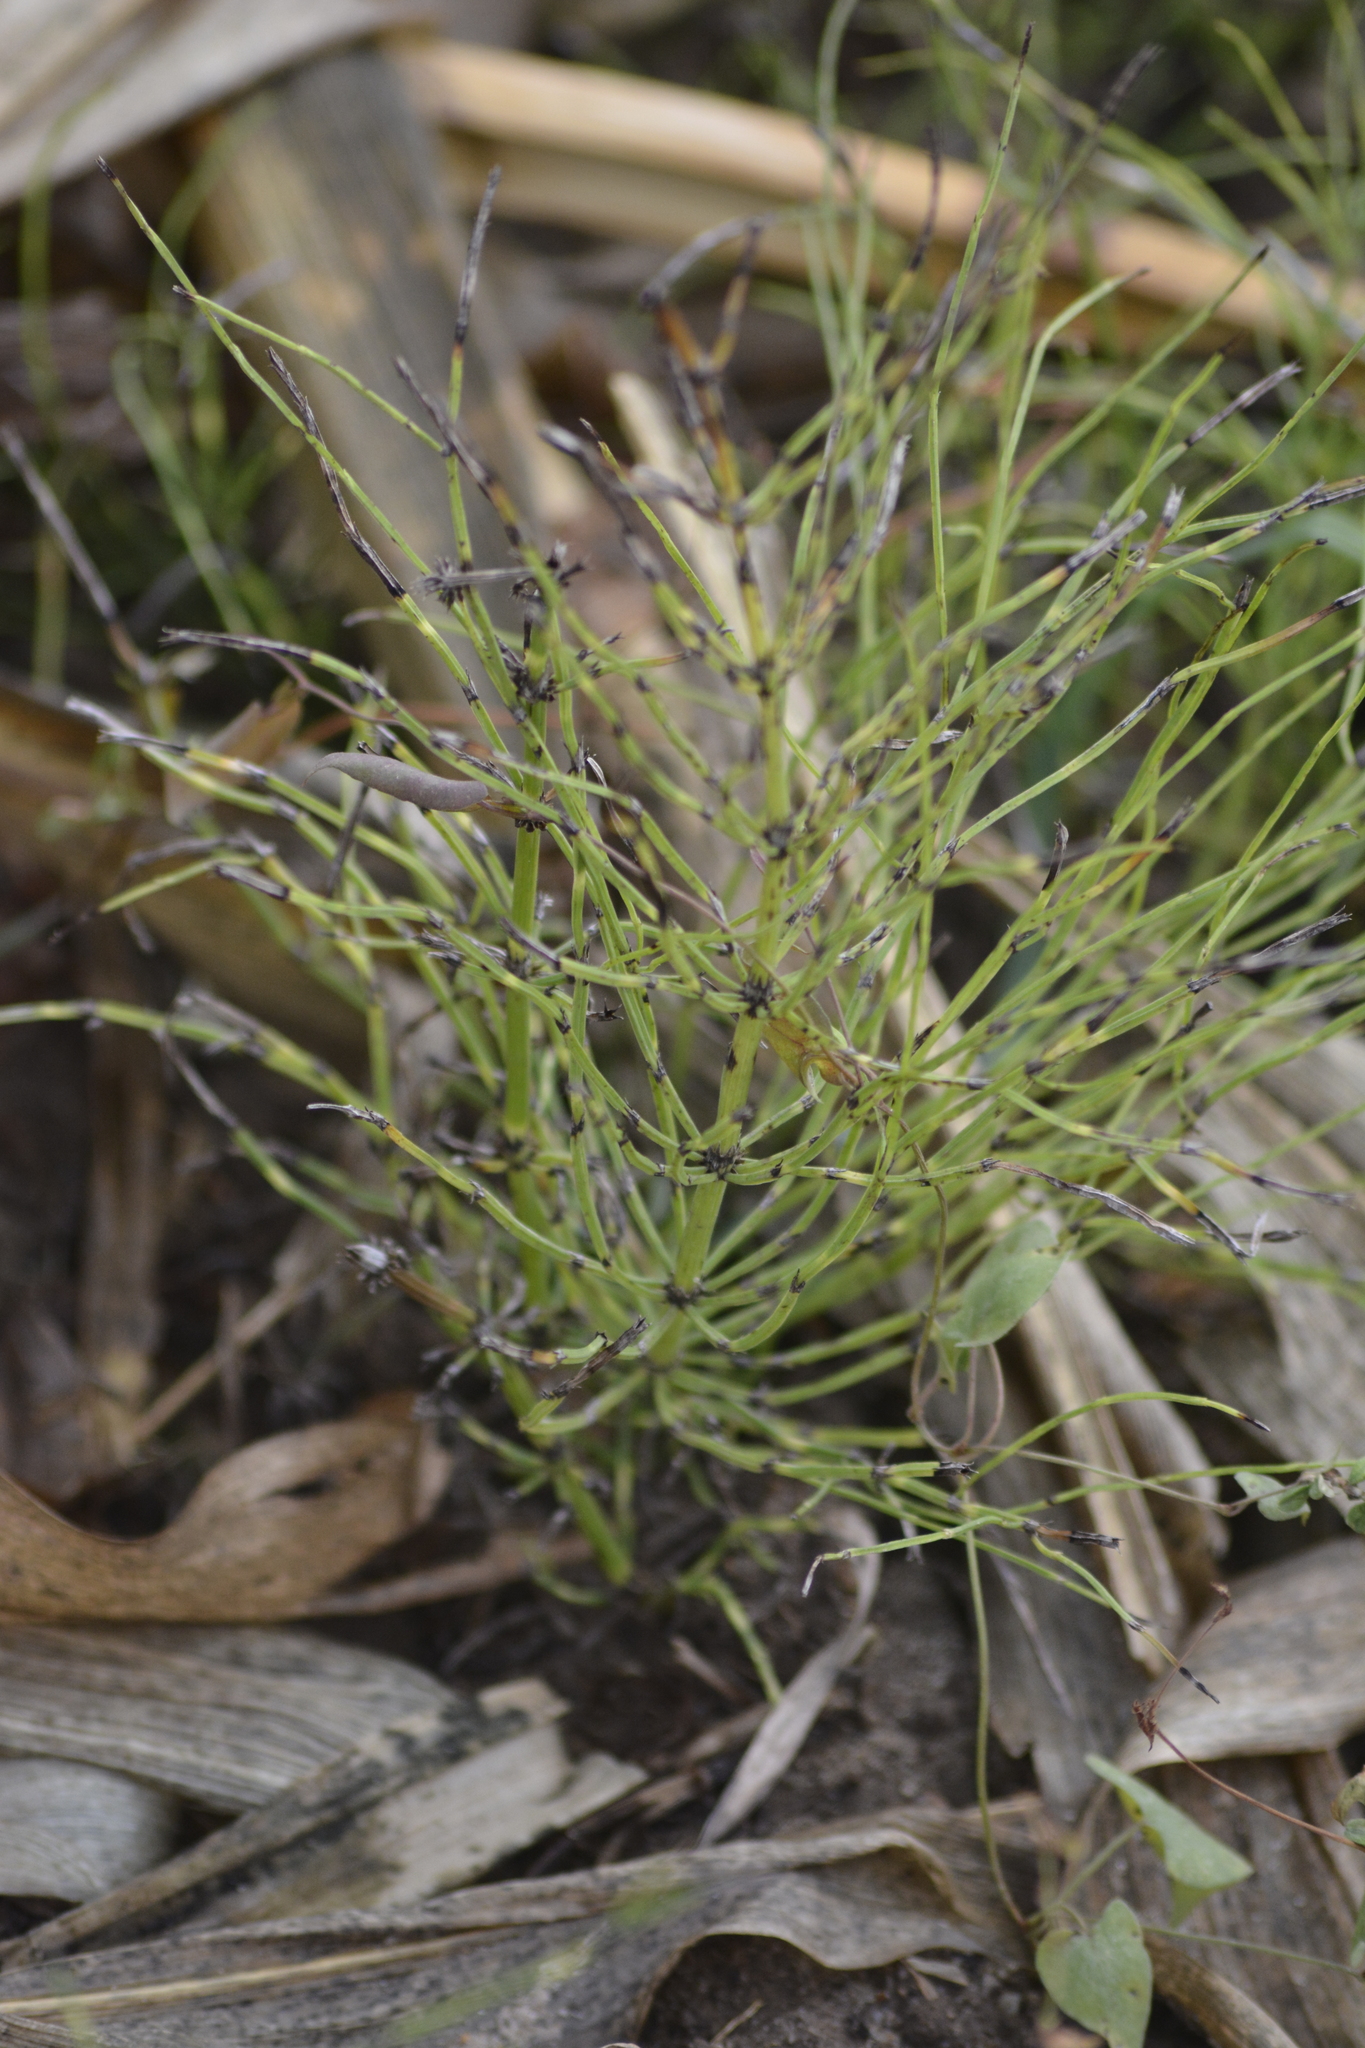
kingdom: Plantae
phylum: Tracheophyta
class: Polypodiopsida
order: Equisetales
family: Equisetaceae
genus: Equisetum
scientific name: Equisetum arvense
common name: Field horsetail
